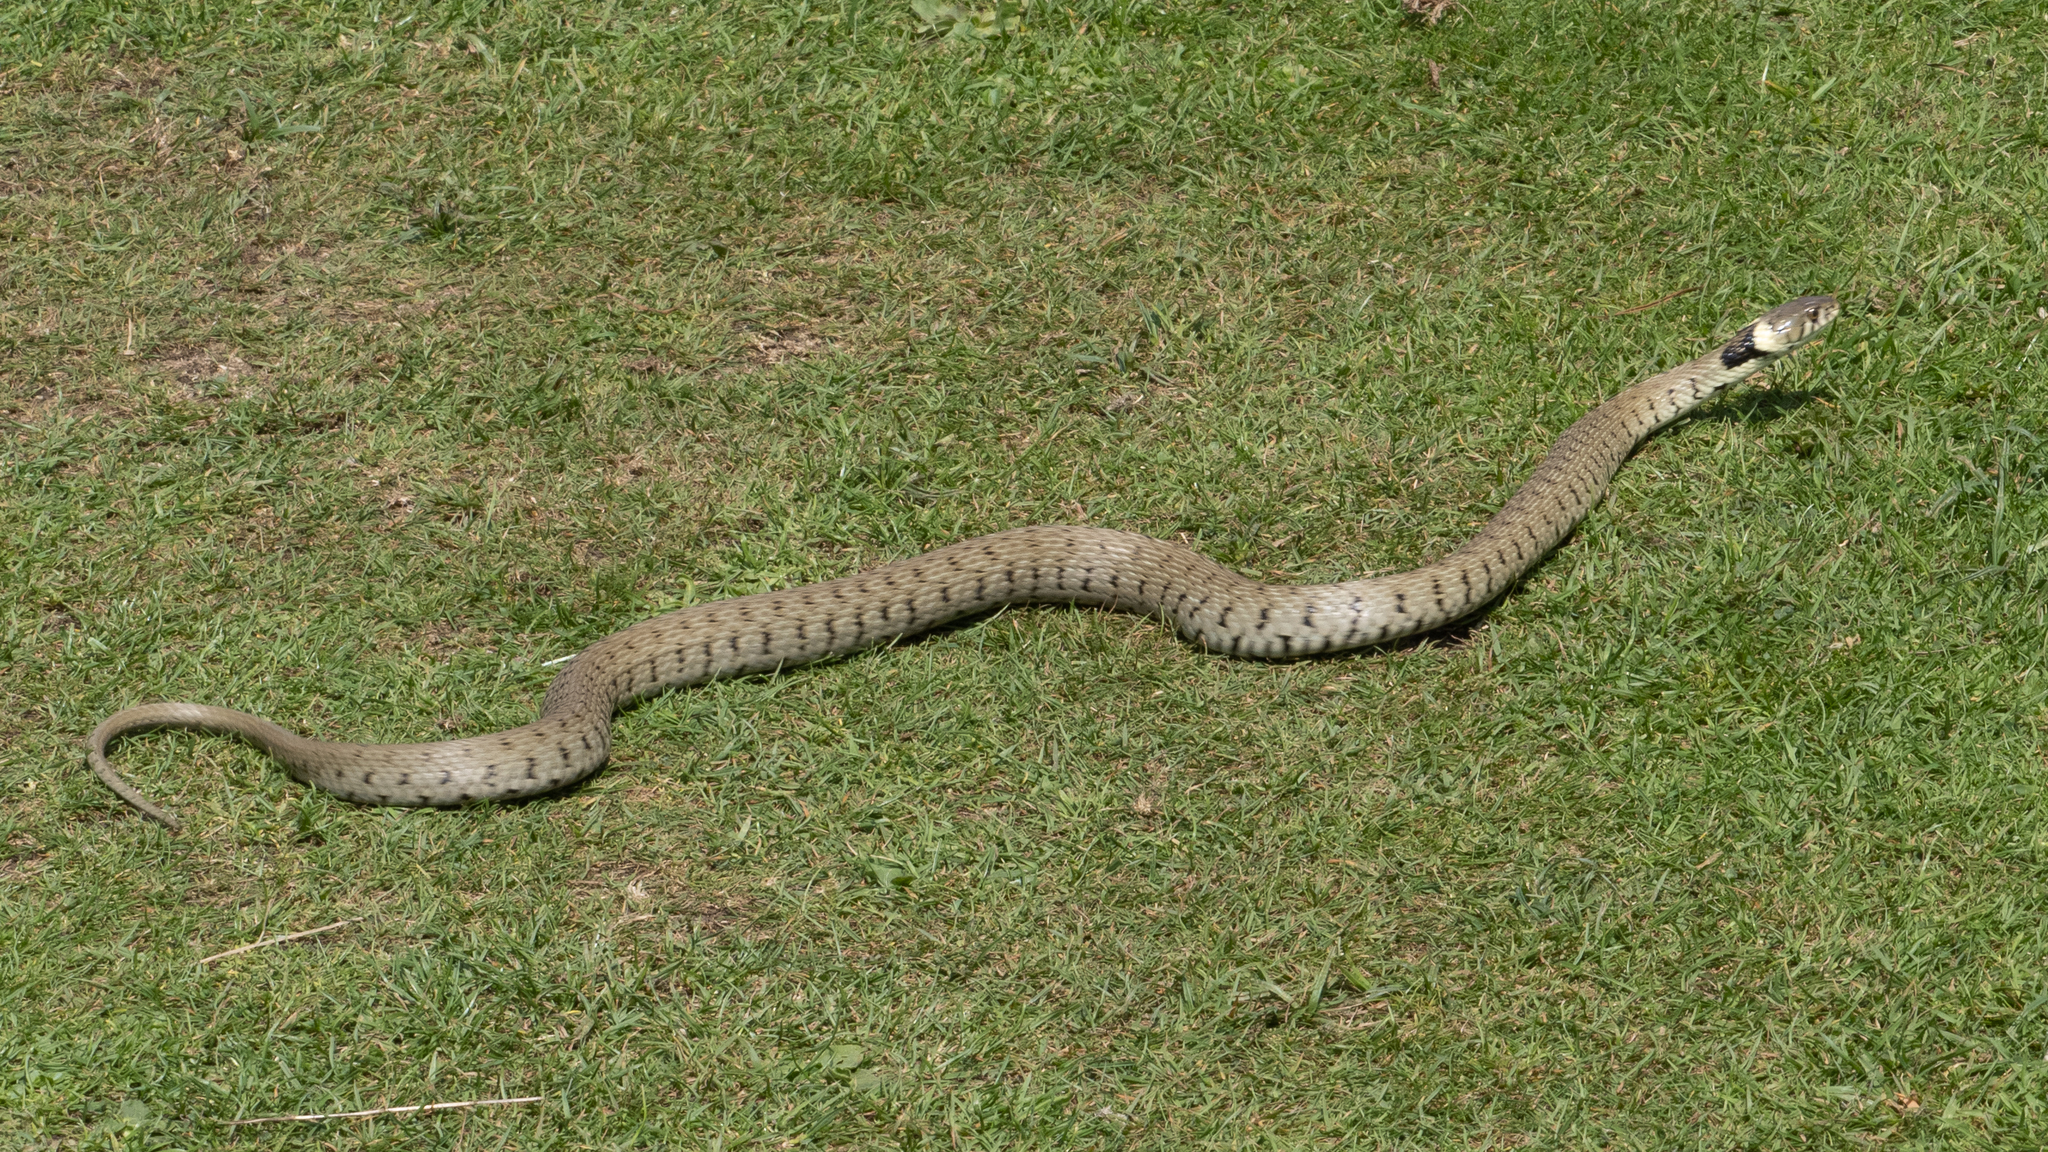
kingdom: Animalia
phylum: Chordata
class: Squamata
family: Colubridae
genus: Natrix
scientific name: Natrix helvetica
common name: Banded grass snake
